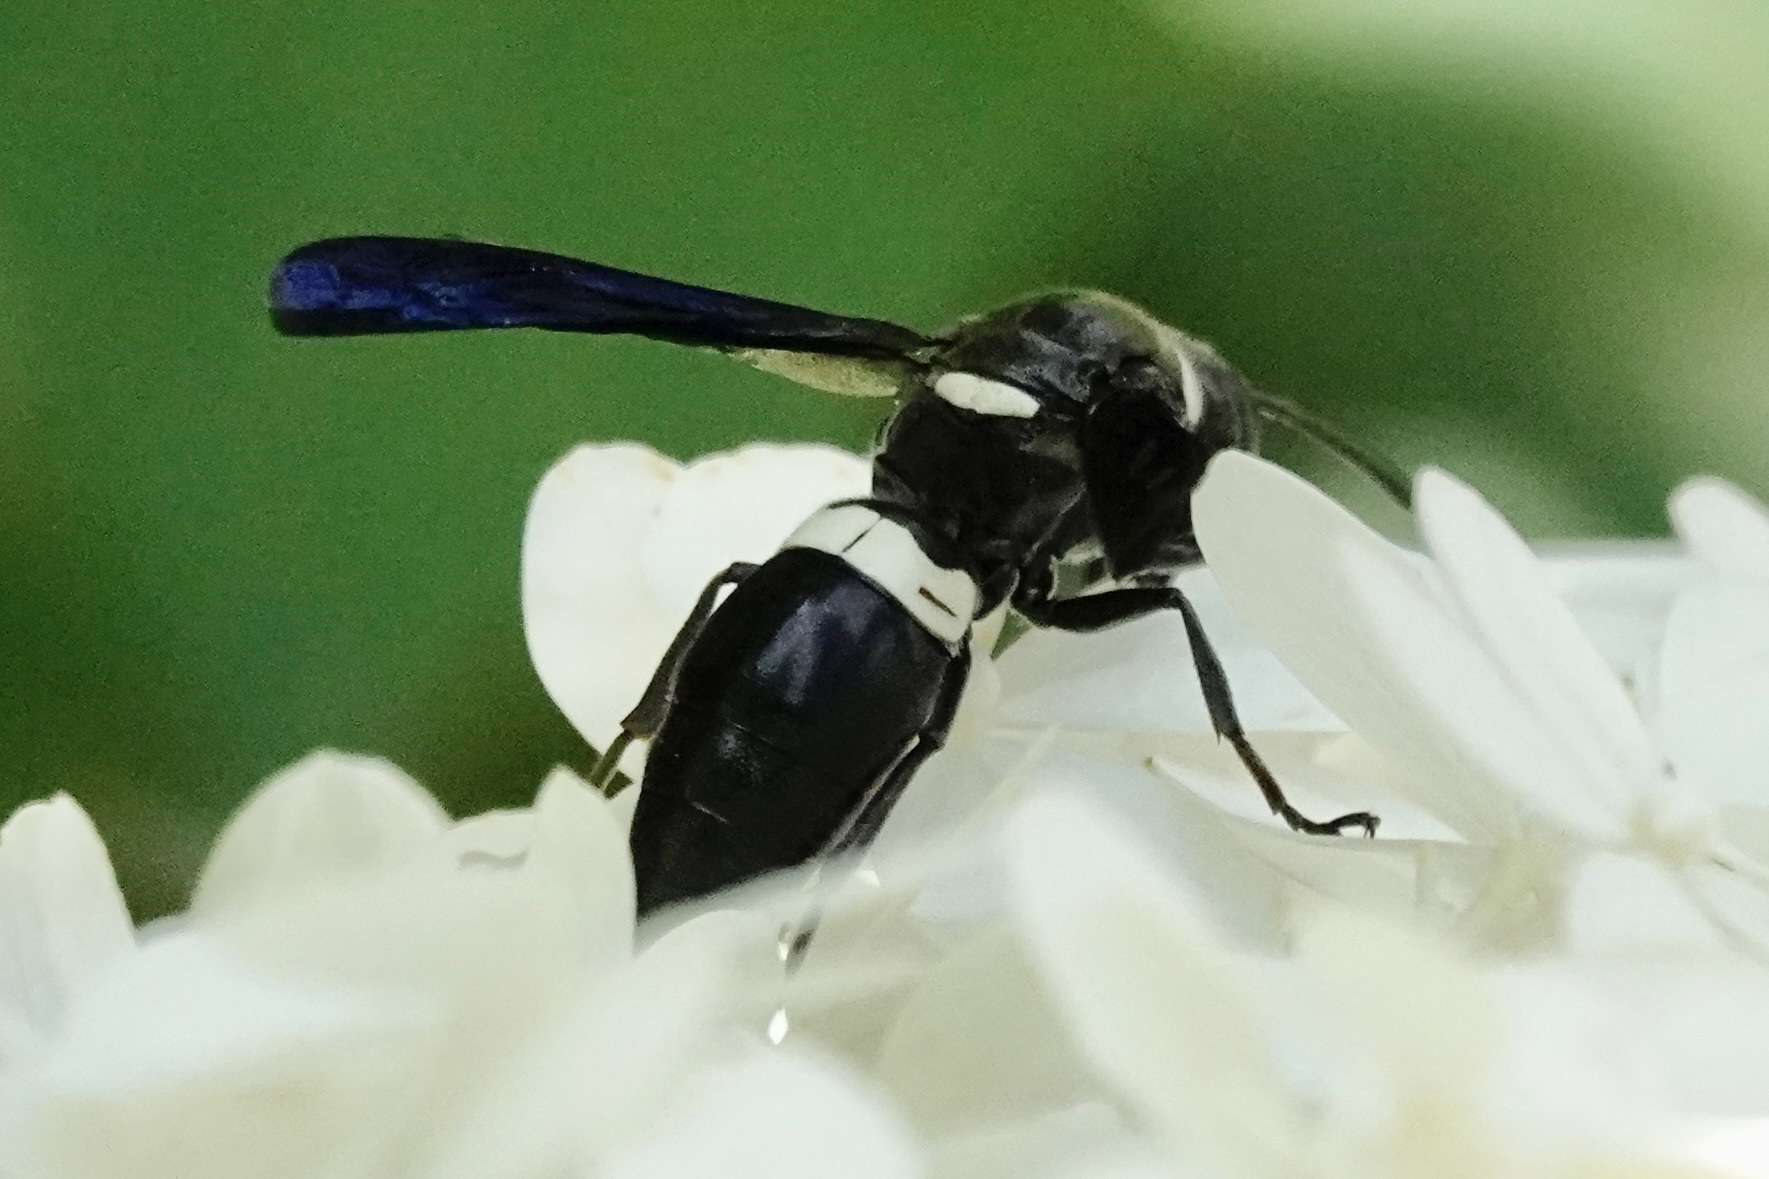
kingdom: Animalia
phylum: Arthropoda
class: Insecta
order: Hymenoptera
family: Eumenidae
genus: Monobia
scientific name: Monobia quadridens
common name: Four-toothed mason wasp
